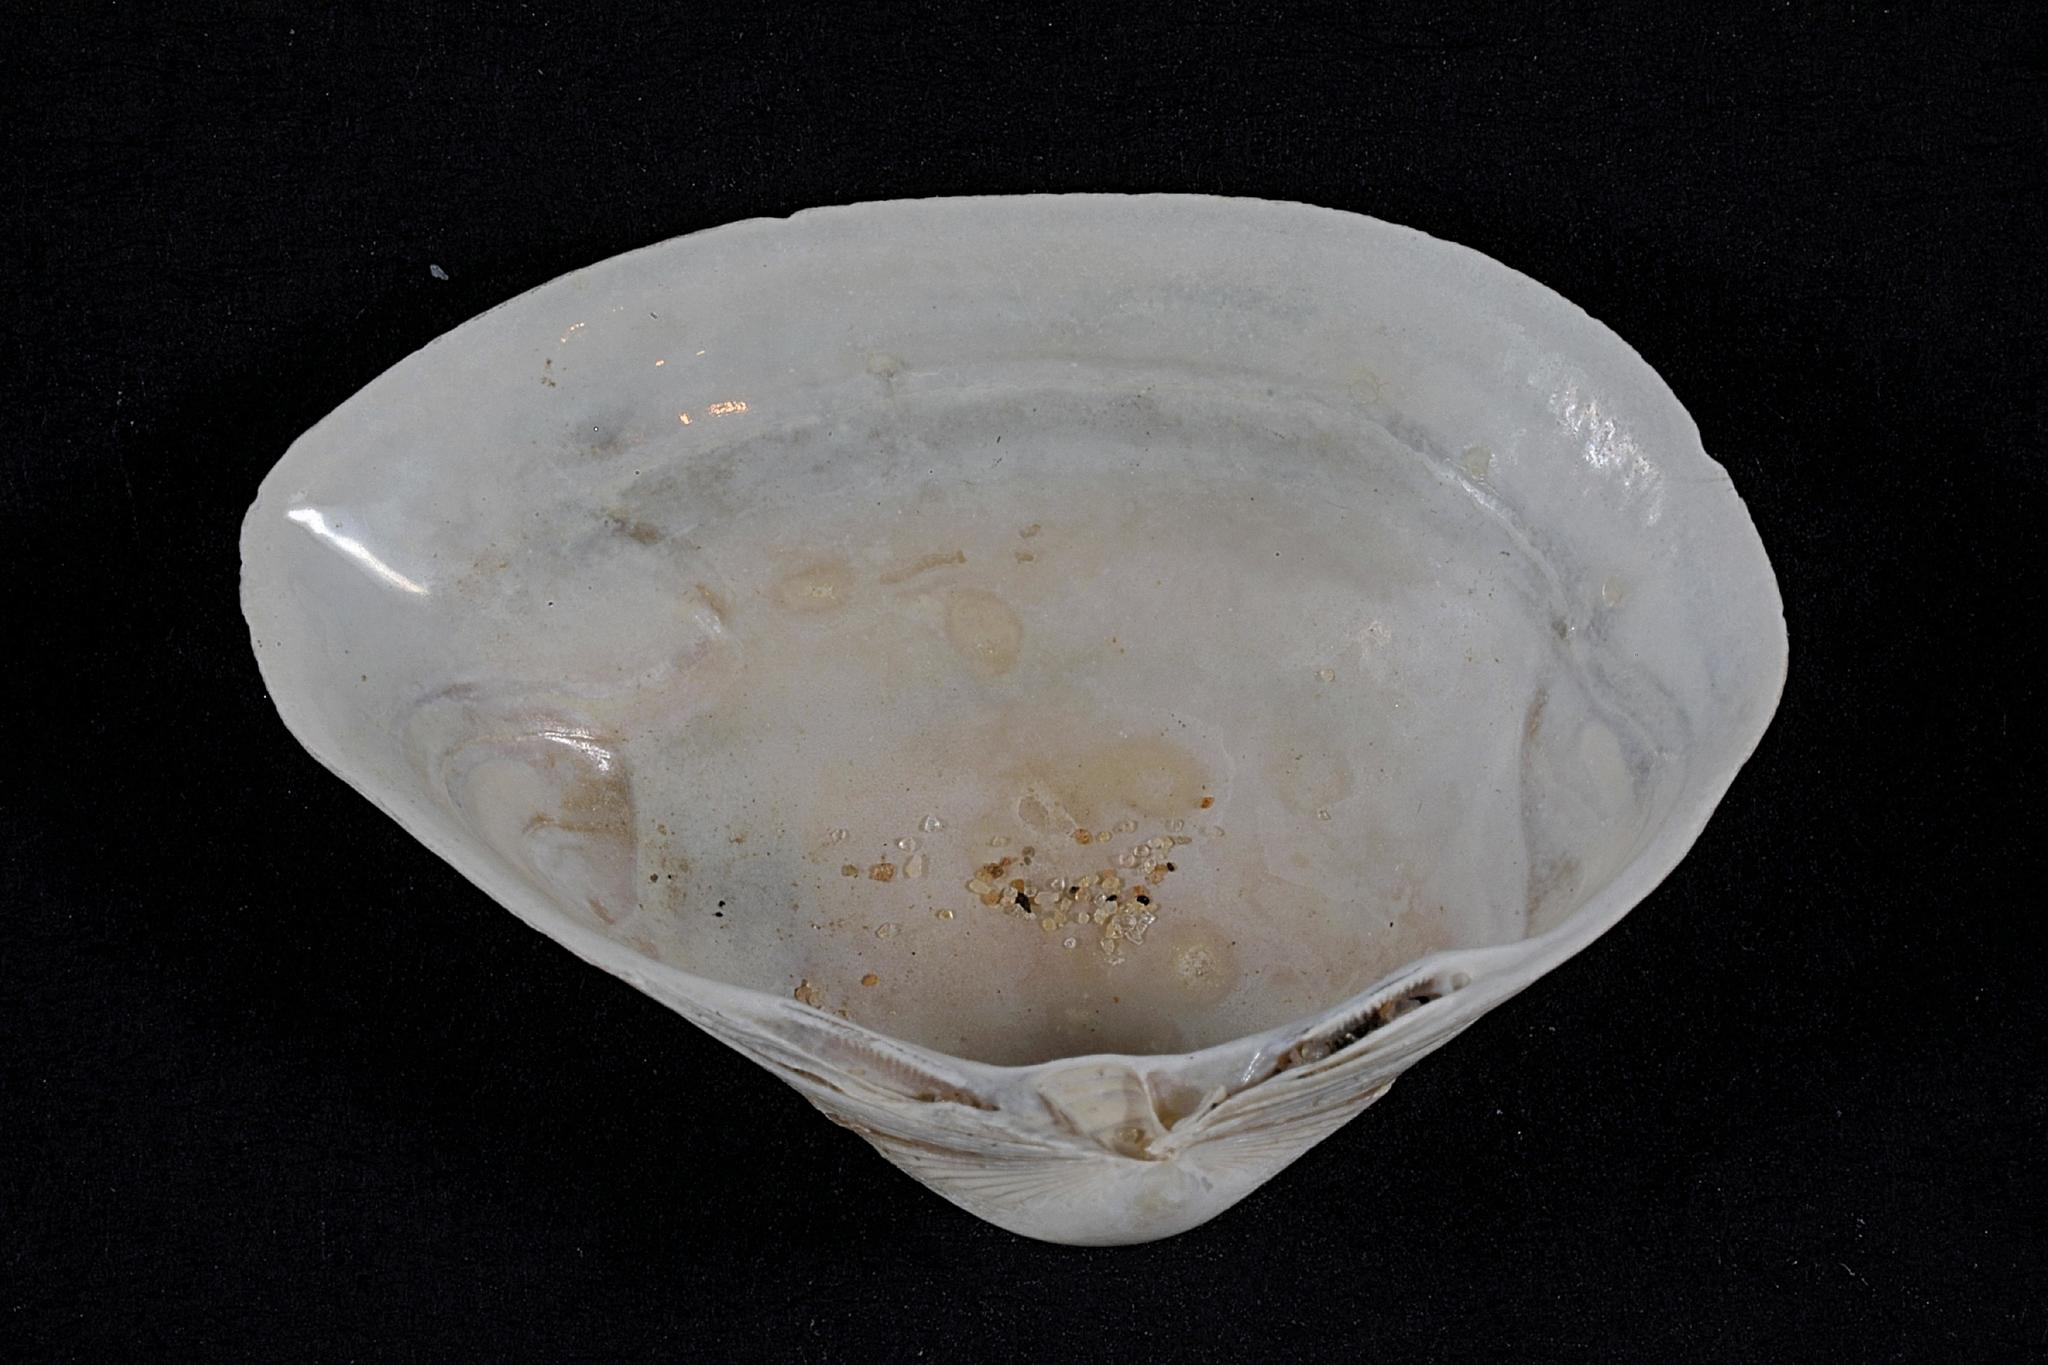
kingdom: Animalia
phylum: Mollusca
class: Bivalvia
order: Venerida
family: Mactridae
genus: Spisula
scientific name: Spisula subtruncata
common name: Cut trough shell
